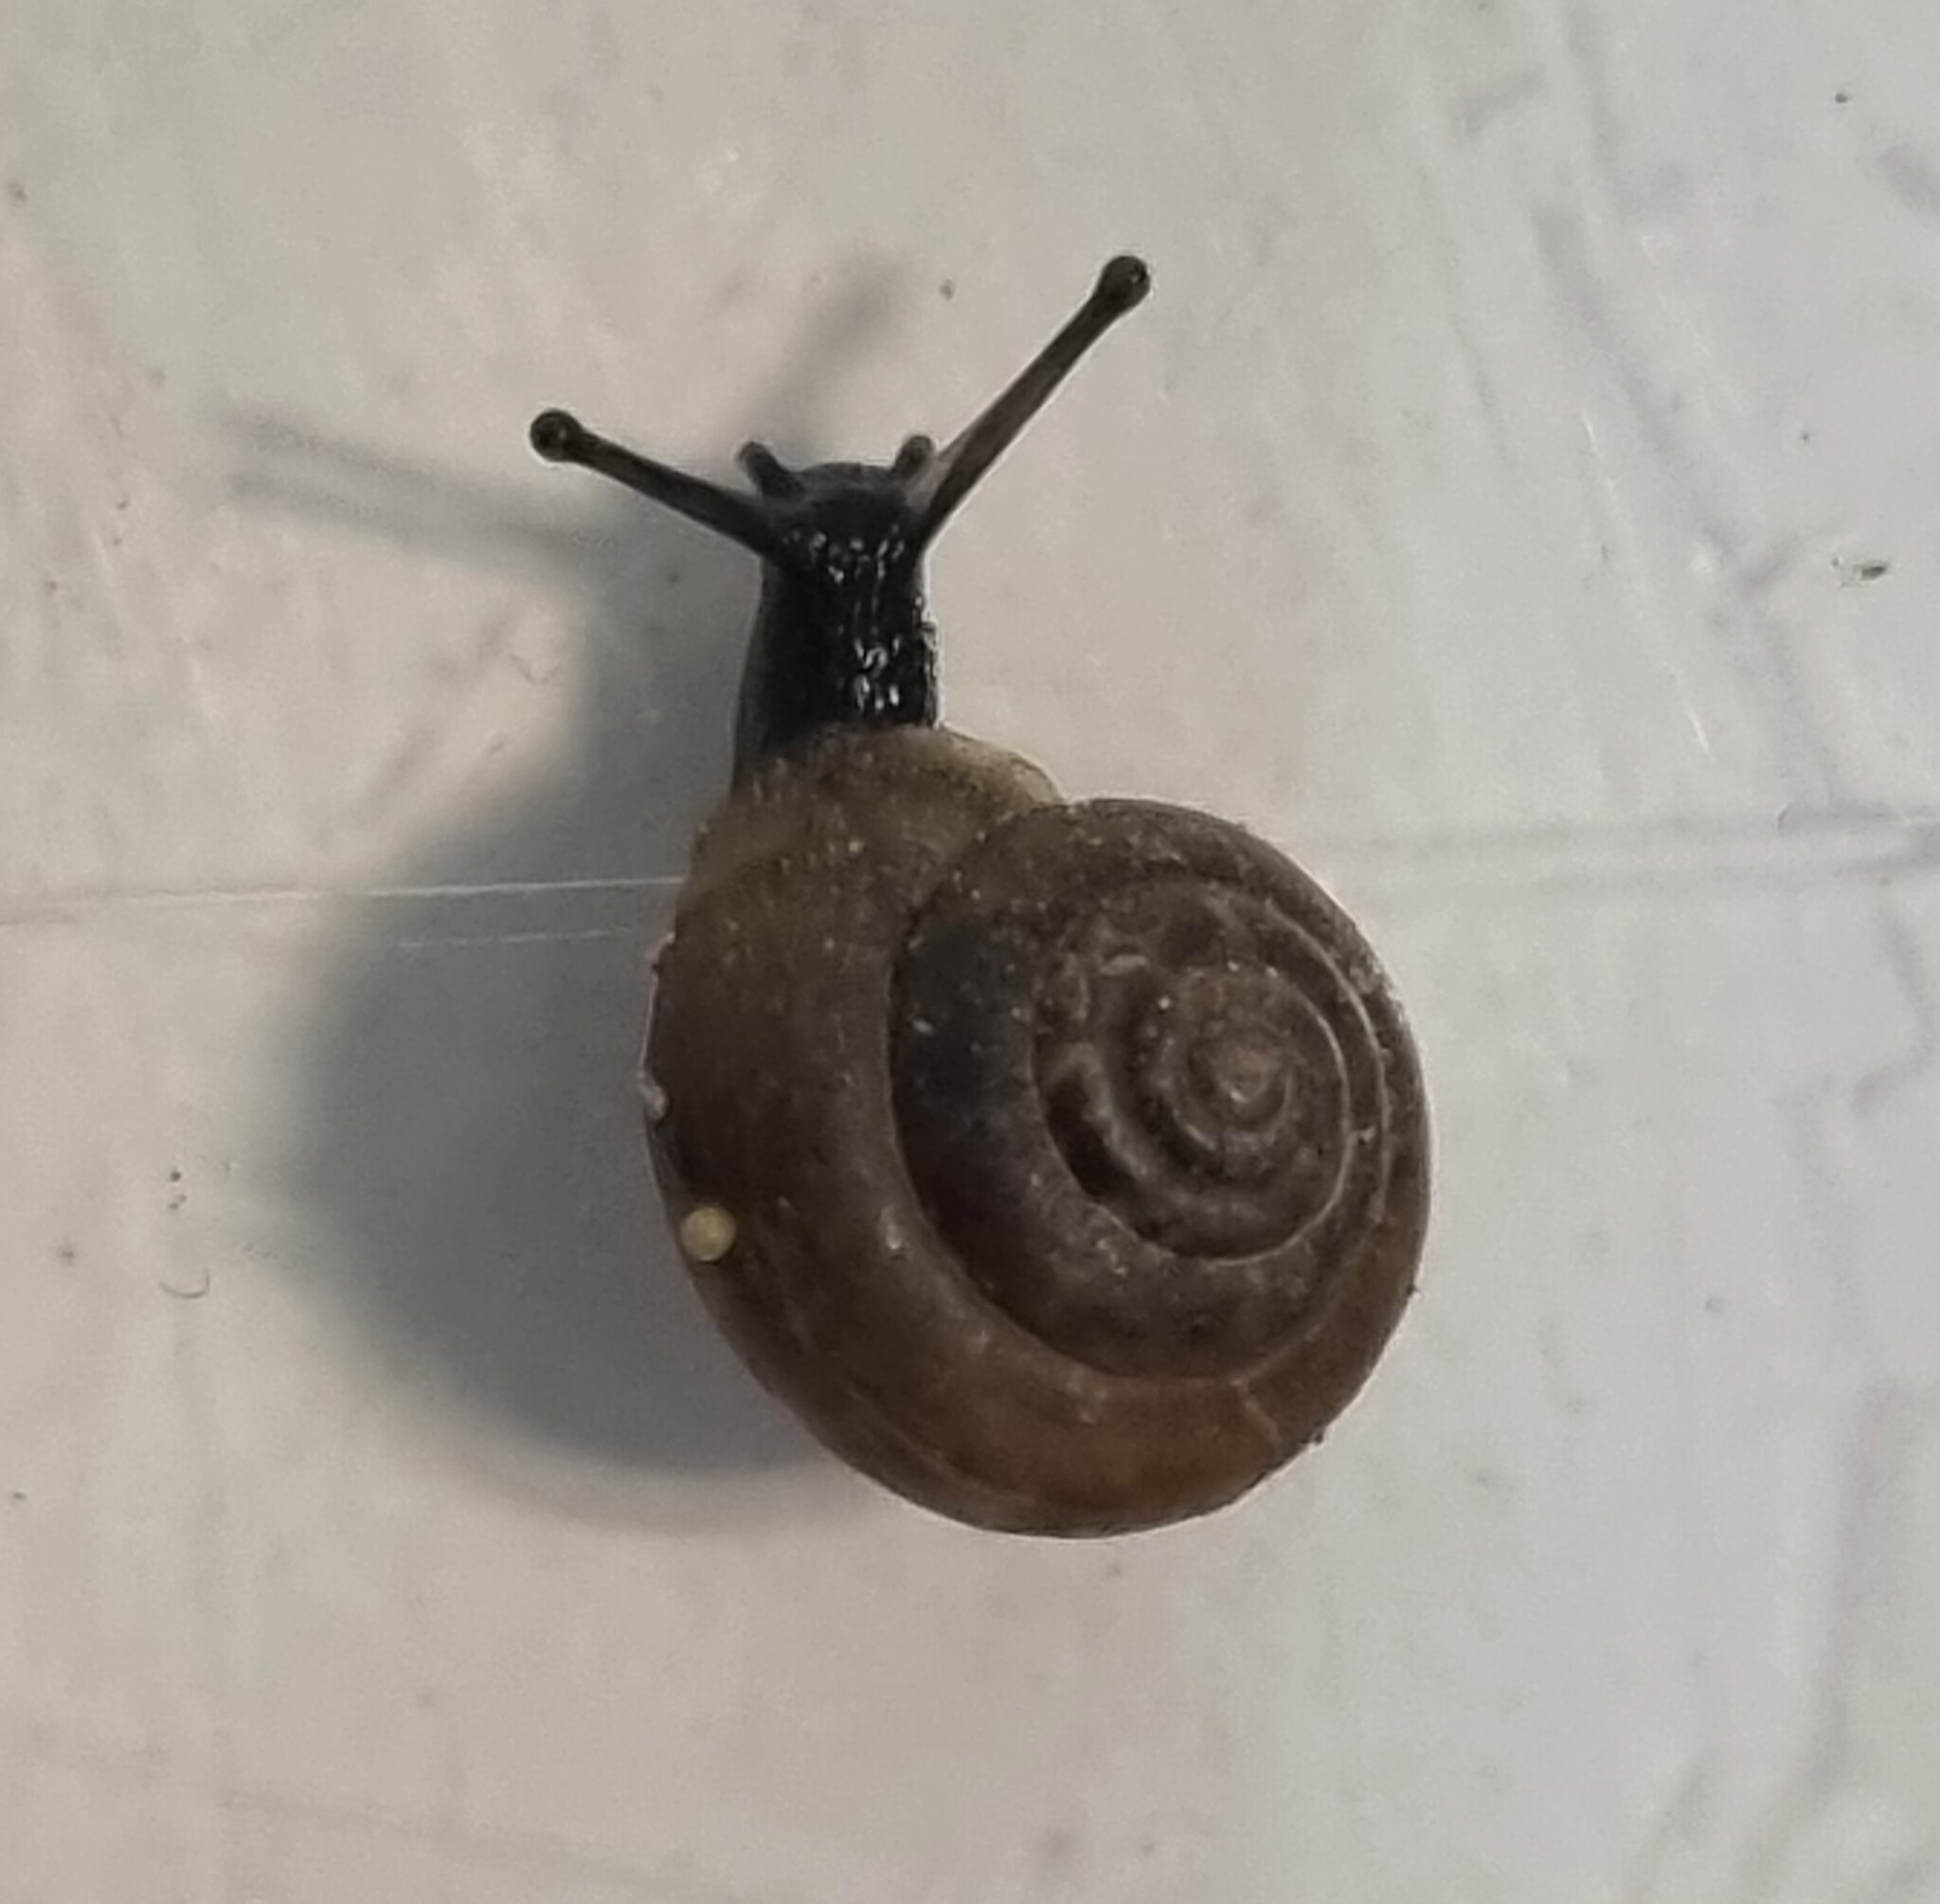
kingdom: Animalia
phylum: Mollusca
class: Gastropoda
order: Stylommatophora
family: Hygromiidae
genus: Trochulus
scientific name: Trochulus hispidus
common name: Hairy snail
